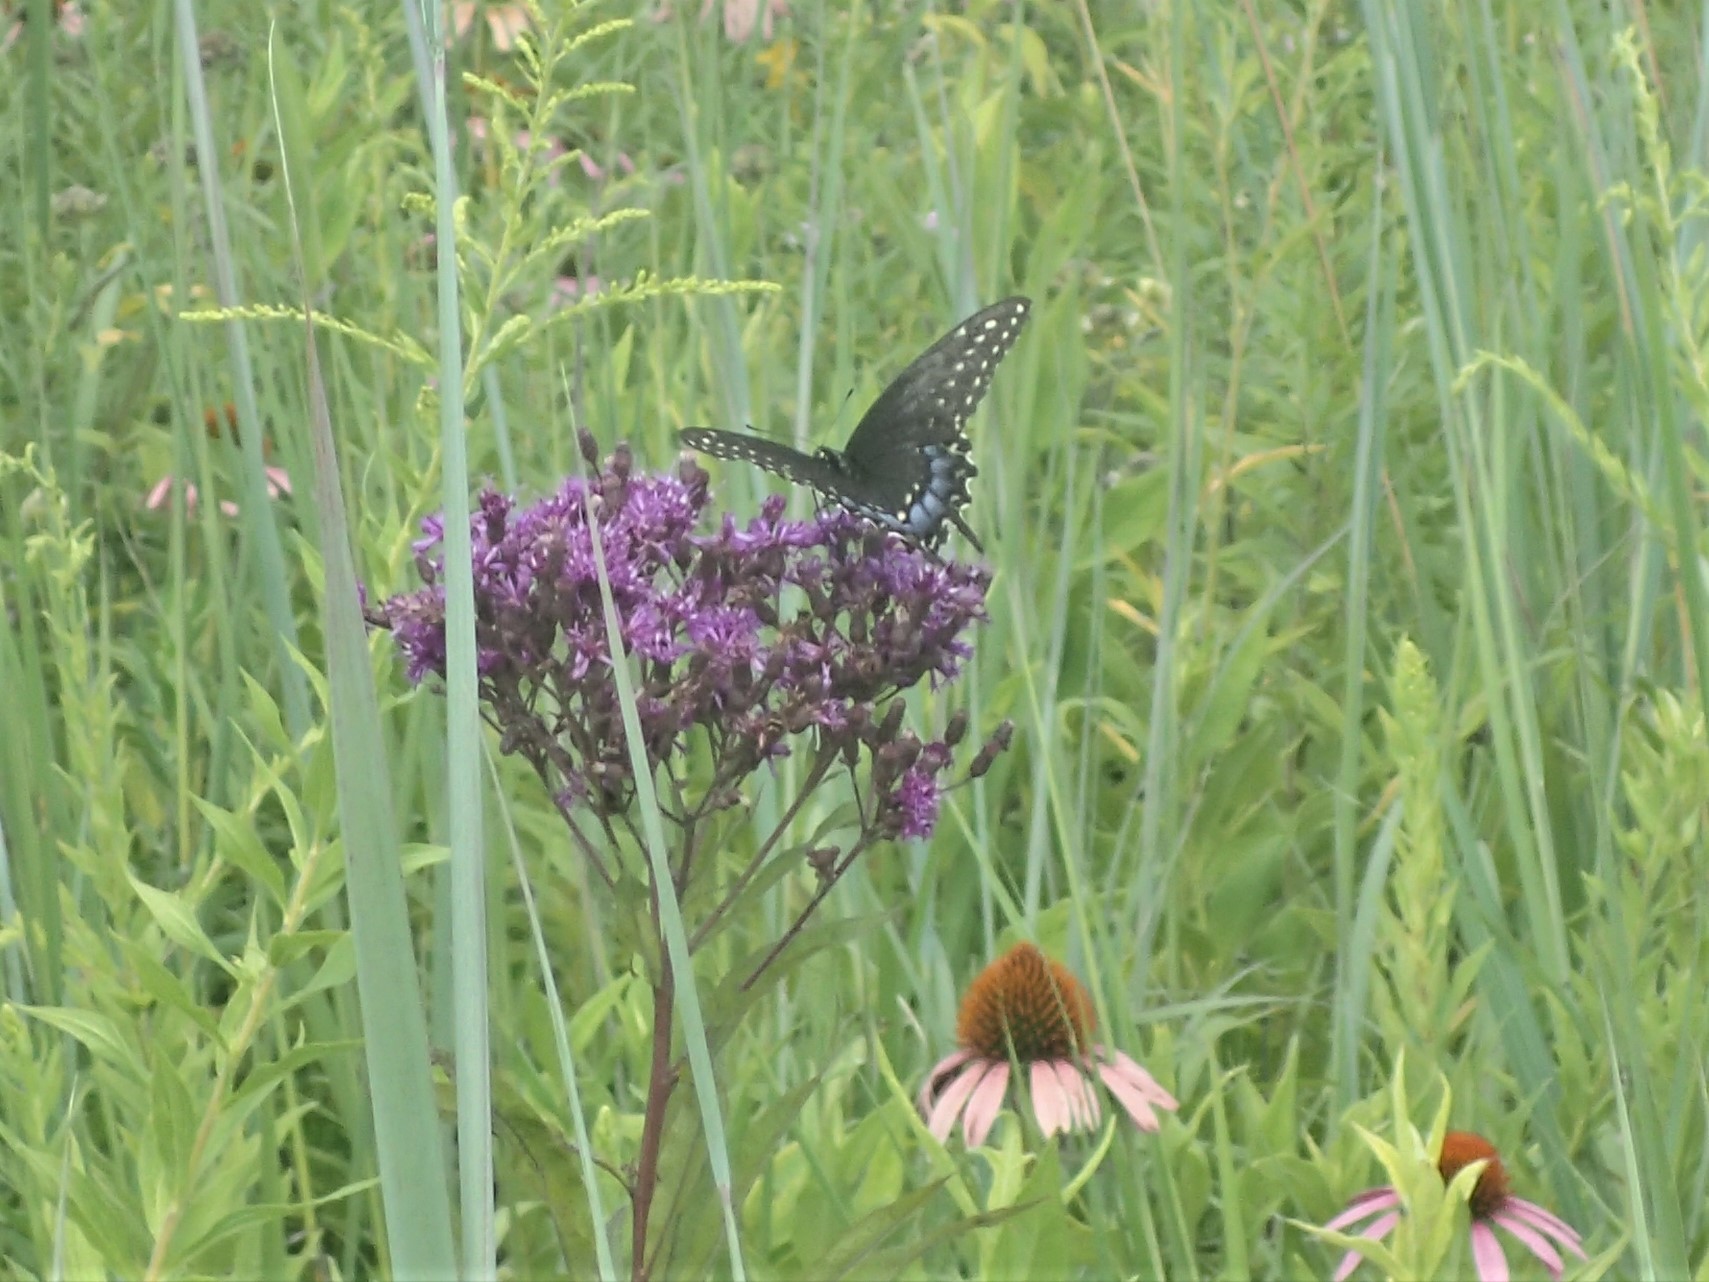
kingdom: Animalia
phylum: Arthropoda
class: Insecta
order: Lepidoptera
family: Papilionidae
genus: Papilio
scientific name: Papilio polyxenes
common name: Black swallowtail
